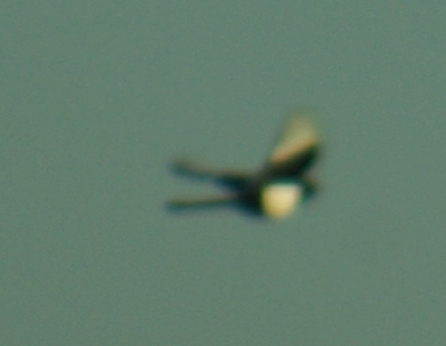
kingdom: Animalia
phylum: Chordata
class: Aves
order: Passeriformes
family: Corvidae
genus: Pica
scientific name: Pica hudsonia
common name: Black-billed magpie
